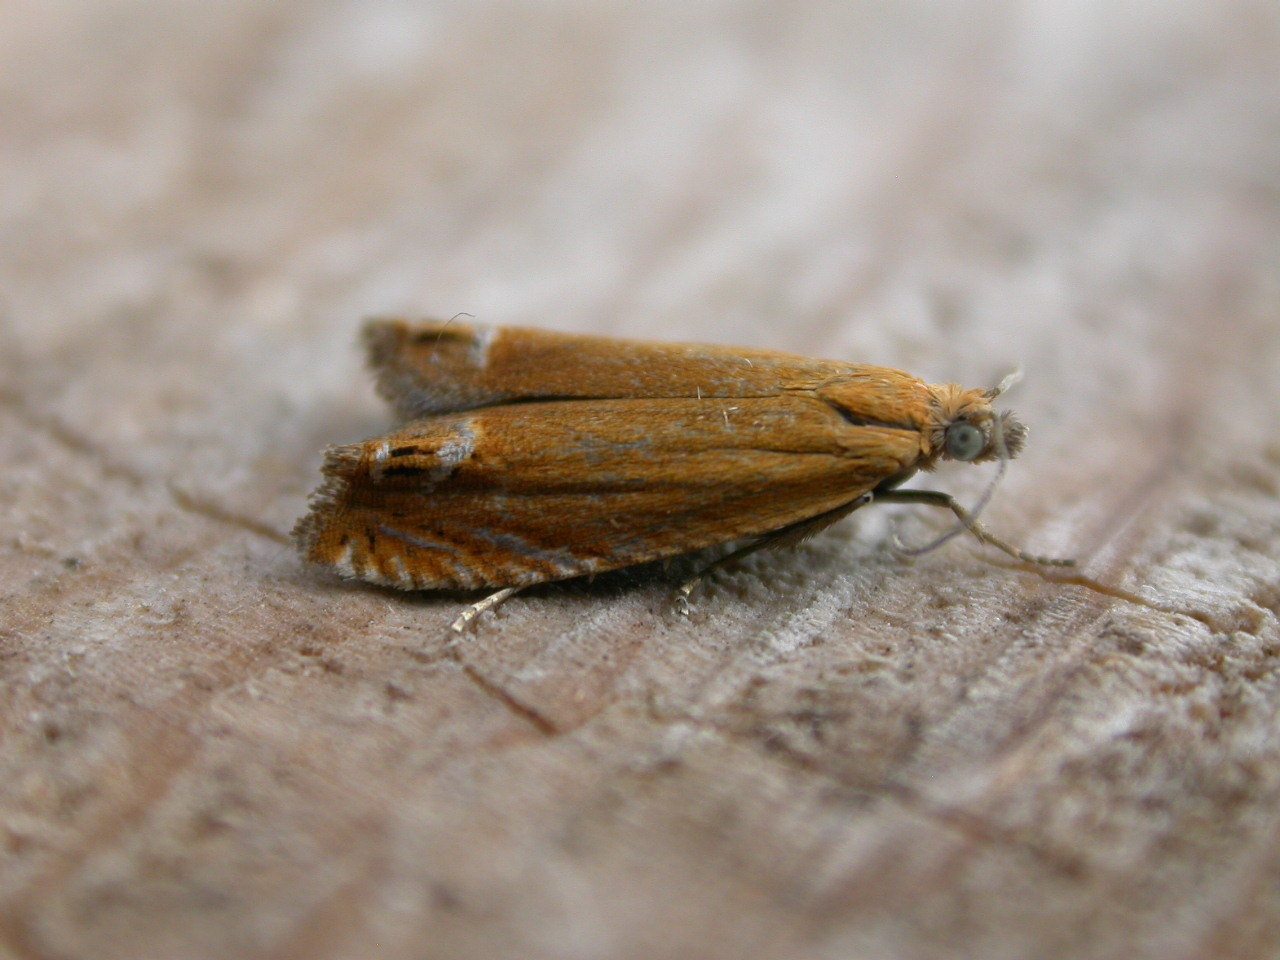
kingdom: Animalia
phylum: Arthropoda
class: Insecta
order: Lepidoptera
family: Tortricidae
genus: Lathronympha
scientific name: Lathronympha strigana
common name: Red piercer
